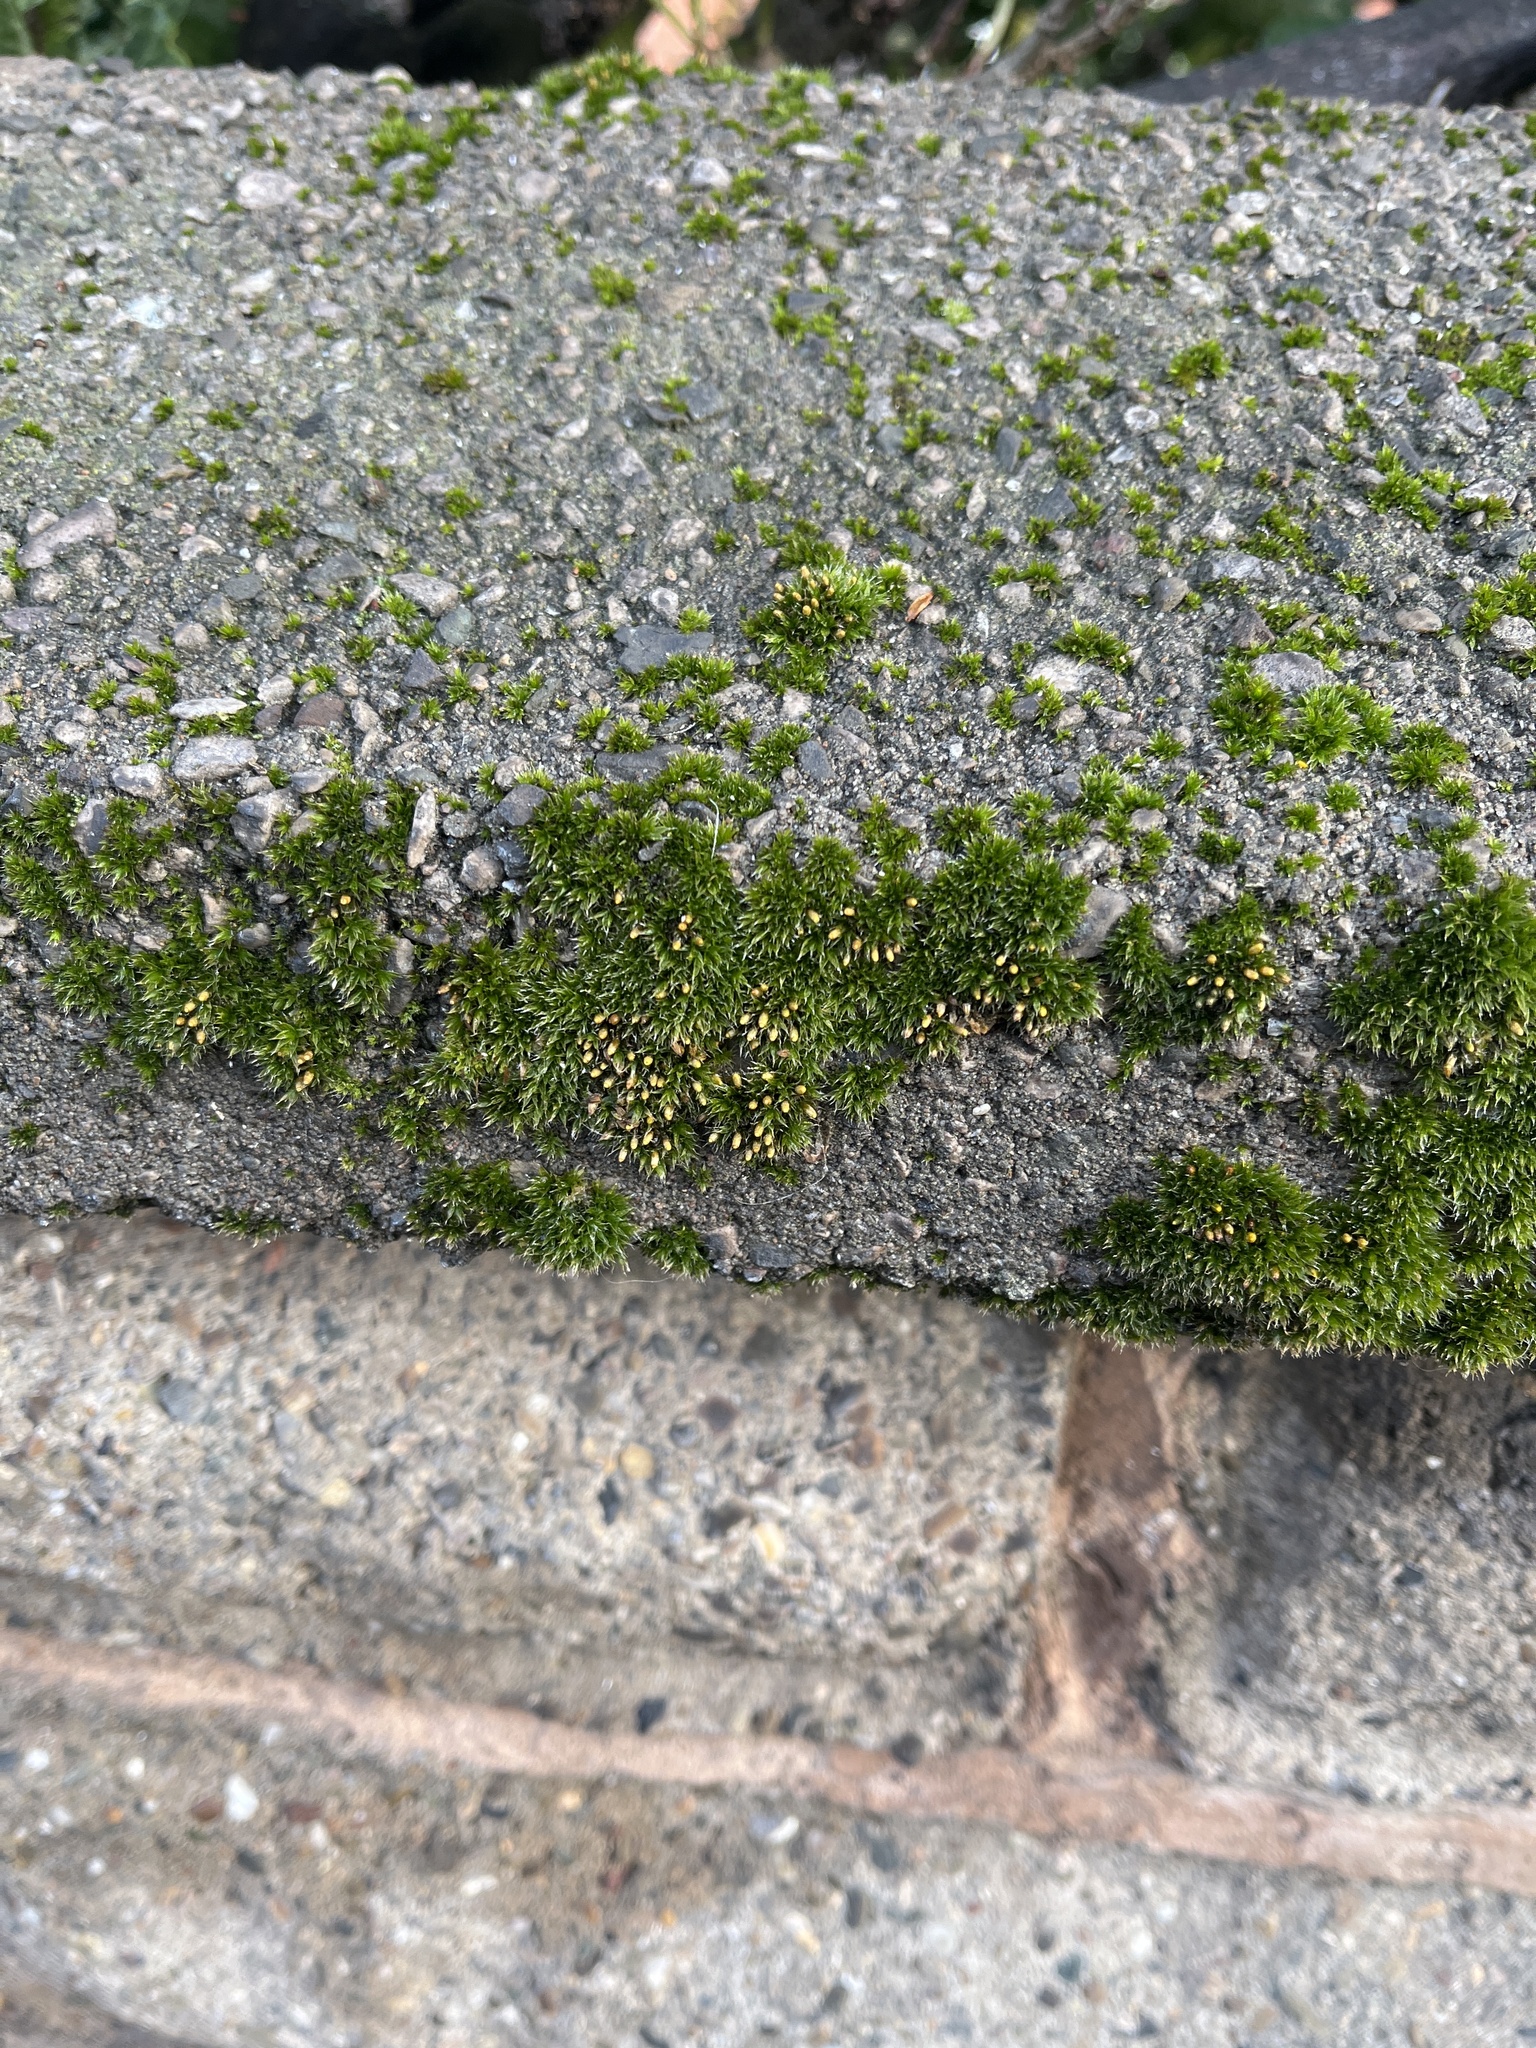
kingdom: Plantae
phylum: Bryophyta
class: Bryopsida
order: Orthotrichales
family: Orthotrichaceae
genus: Orthotrichum
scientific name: Orthotrichum diaphanum
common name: White-tipped bristle-moss
